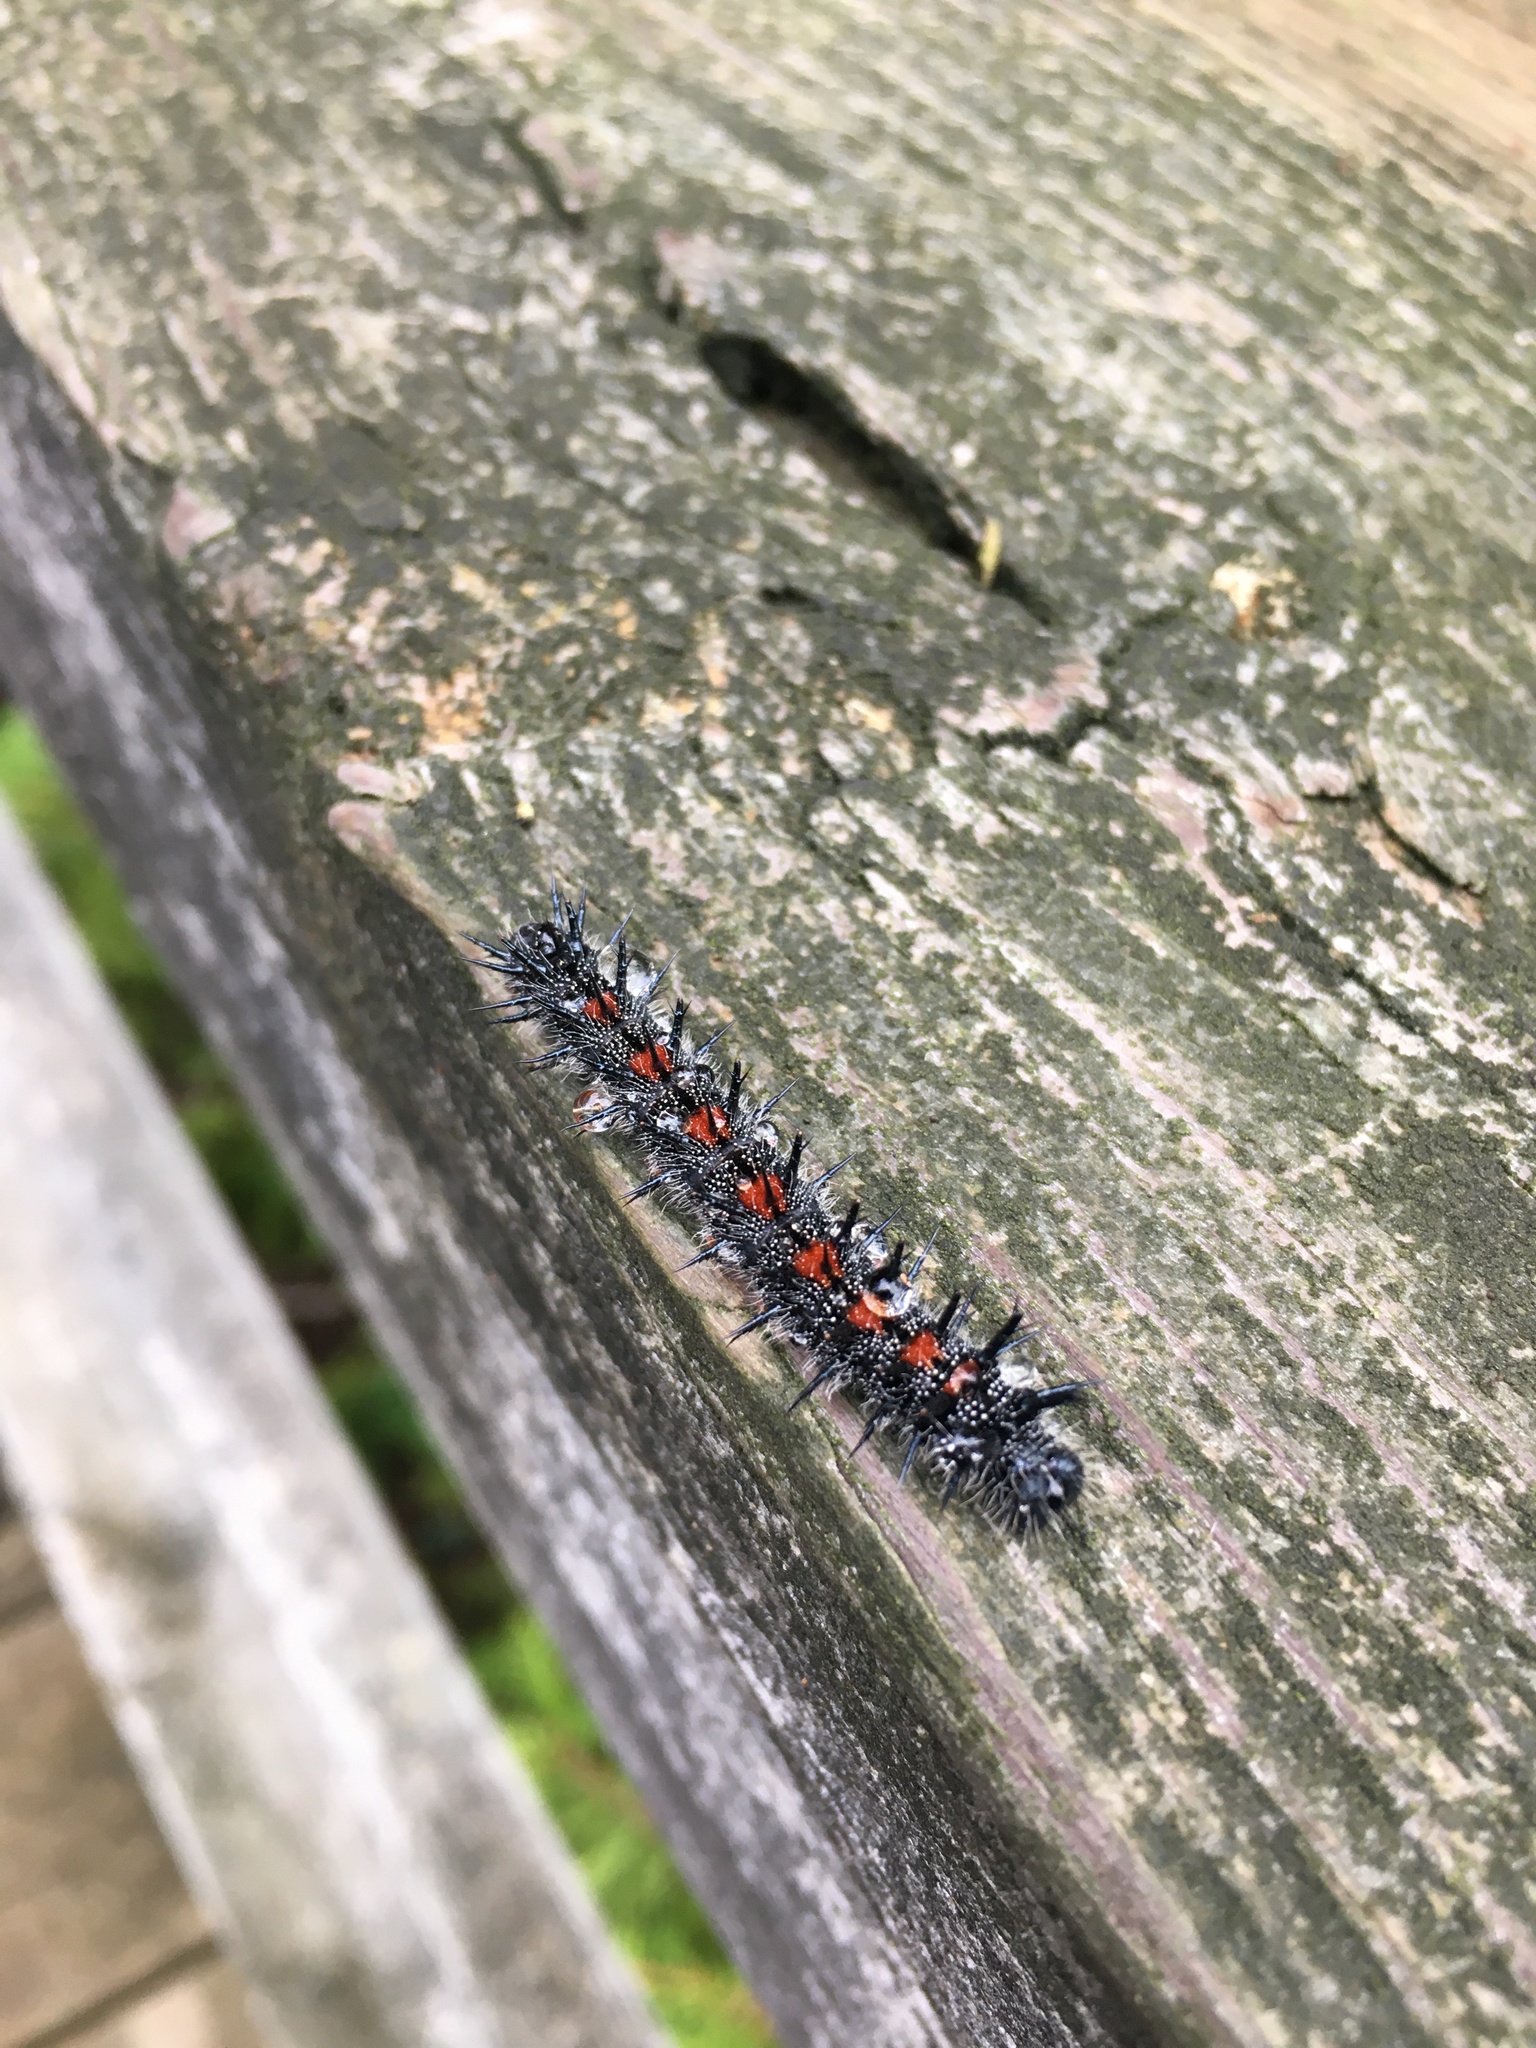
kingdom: Animalia
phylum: Arthropoda
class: Insecta
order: Lepidoptera
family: Nymphalidae
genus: Nymphalis
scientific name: Nymphalis antiopa
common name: Camberwell beauty
